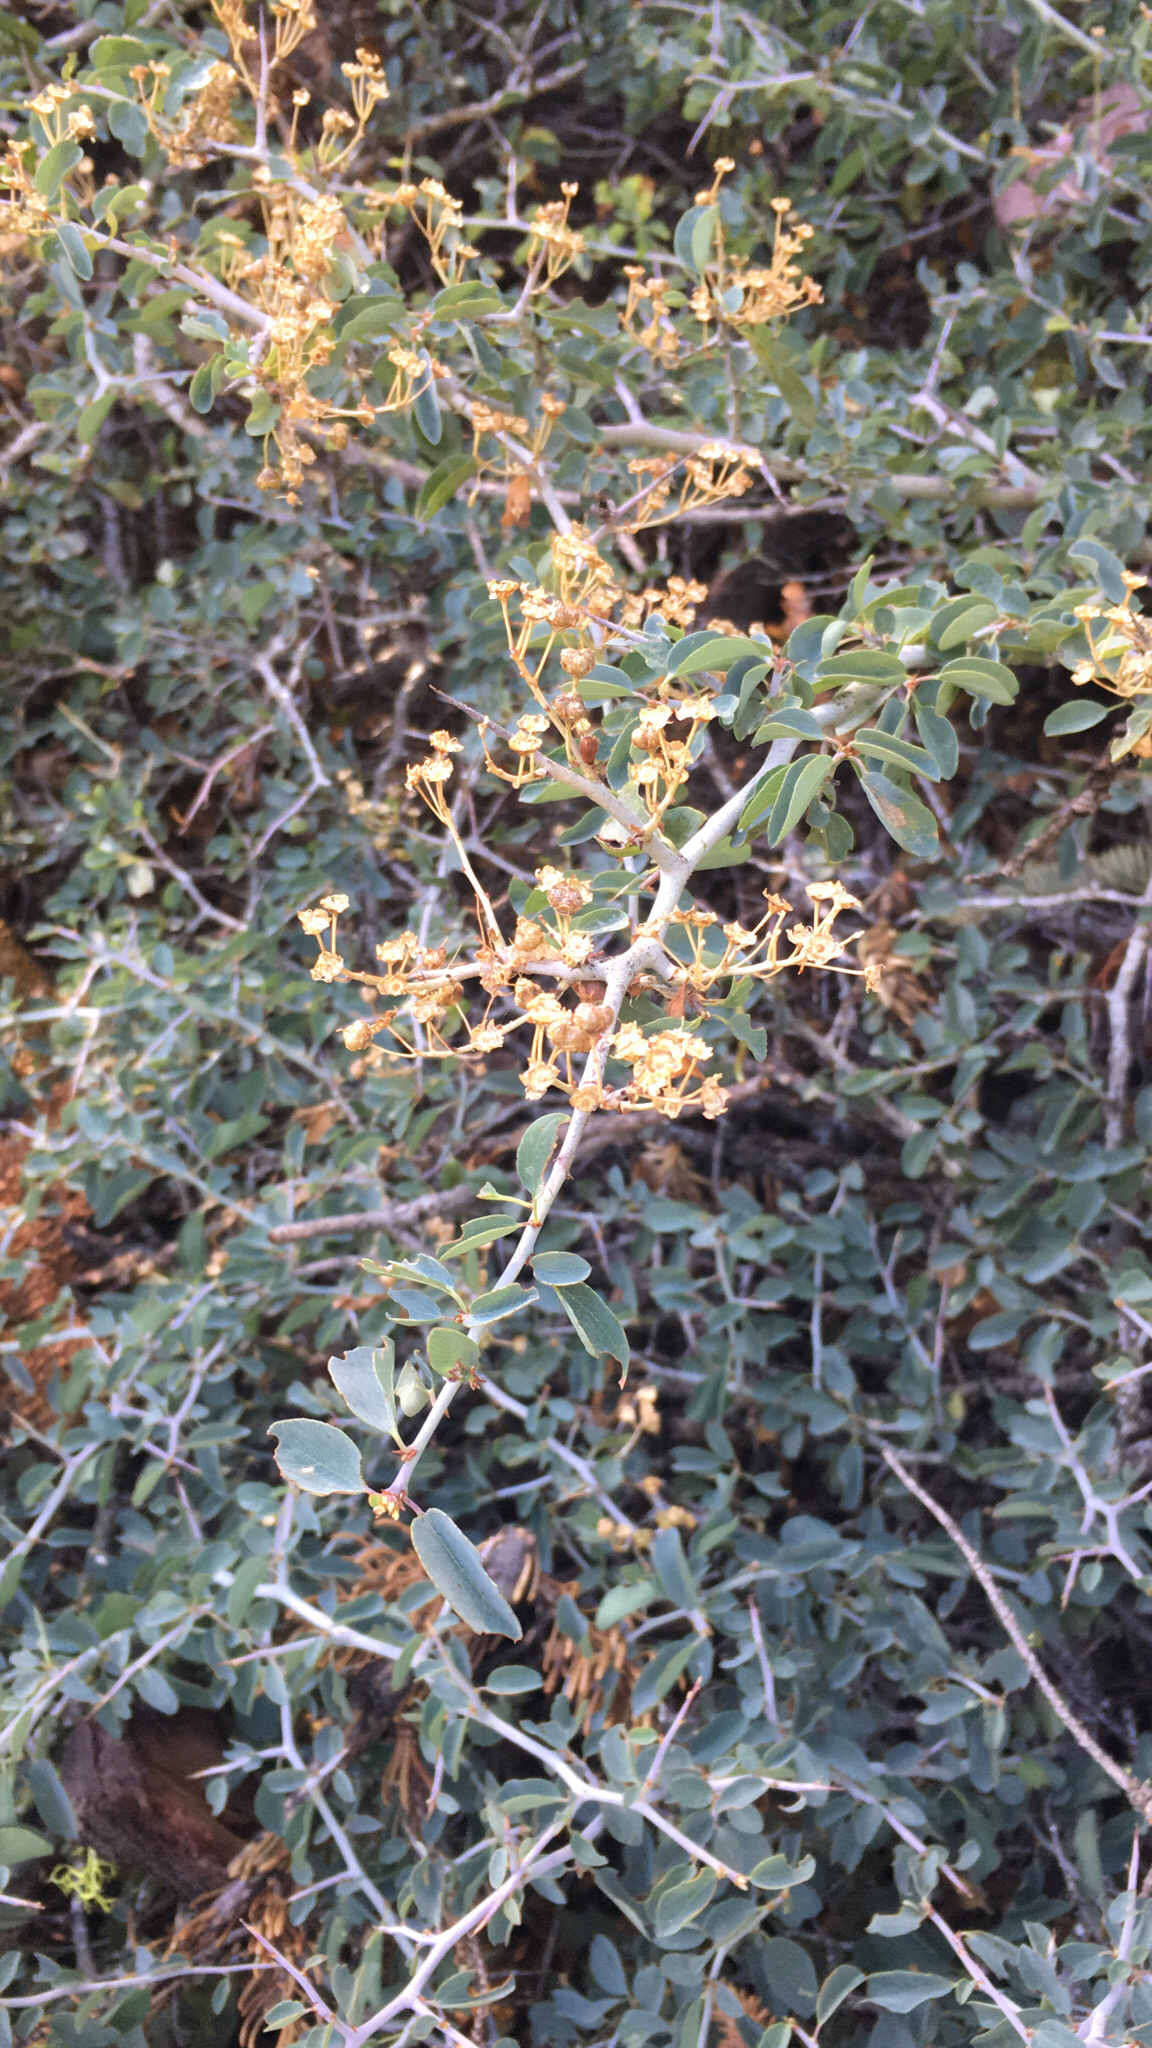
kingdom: Plantae
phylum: Tracheophyta
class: Magnoliopsida
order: Rosales
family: Rhamnaceae
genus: Ceanothus
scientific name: Ceanothus cordulatus
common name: Mountain whitethorn
